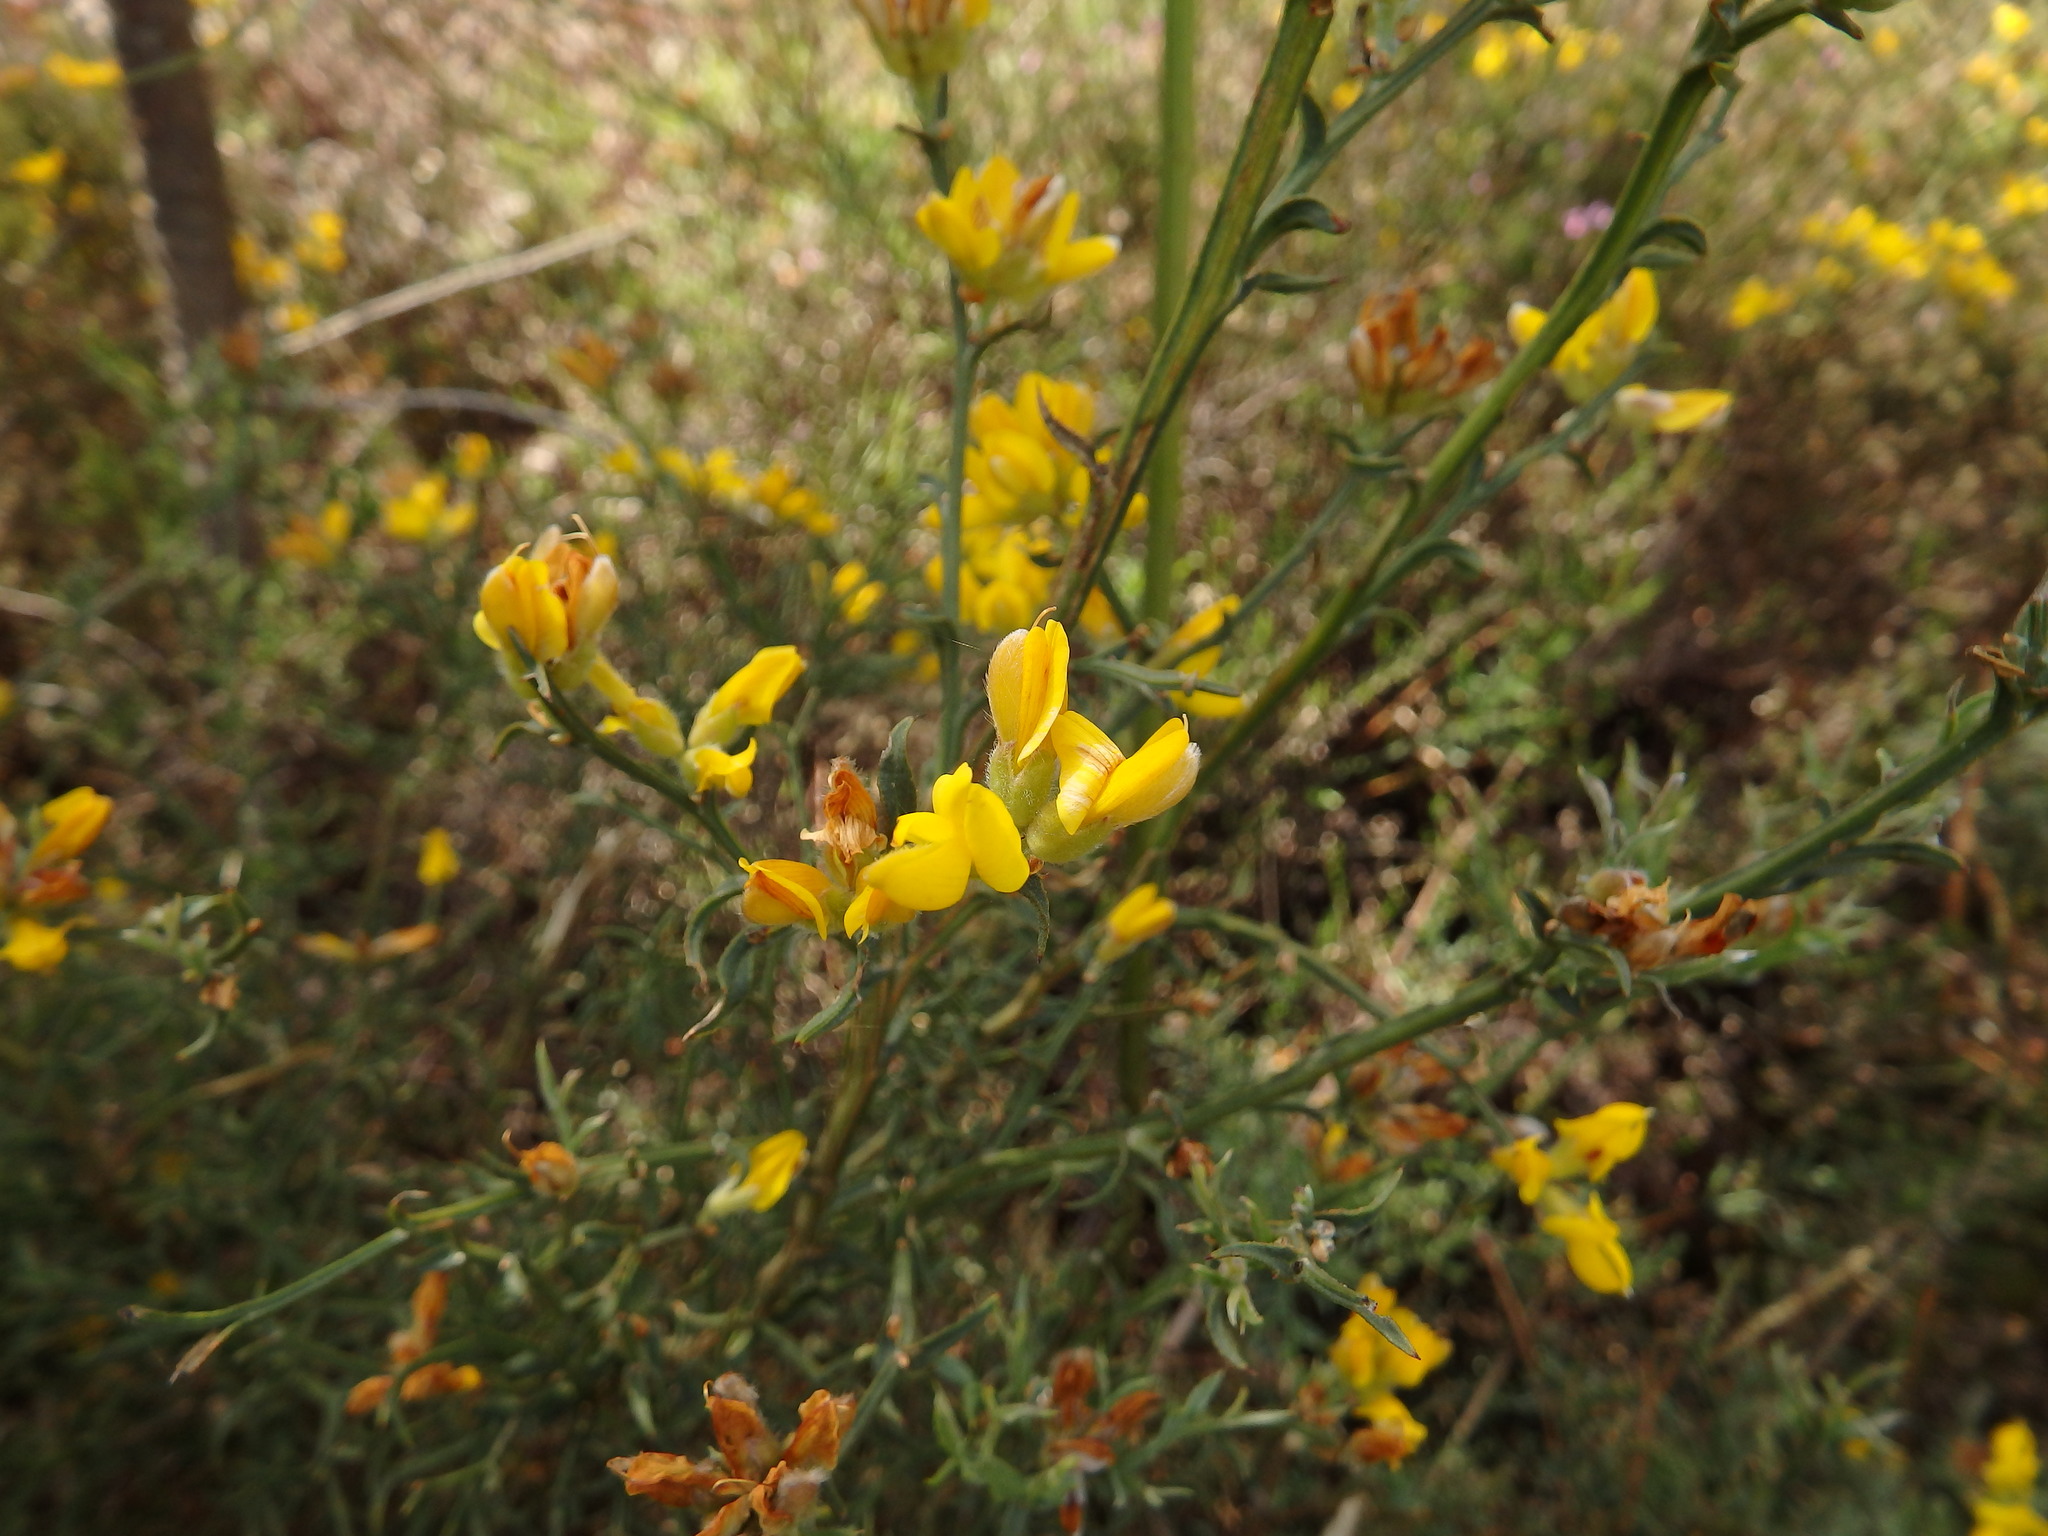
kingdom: Plantae
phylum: Tracheophyta
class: Magnoliopsida
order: Fabales
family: Fabaceae
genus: Genista
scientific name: Genista tridentata
